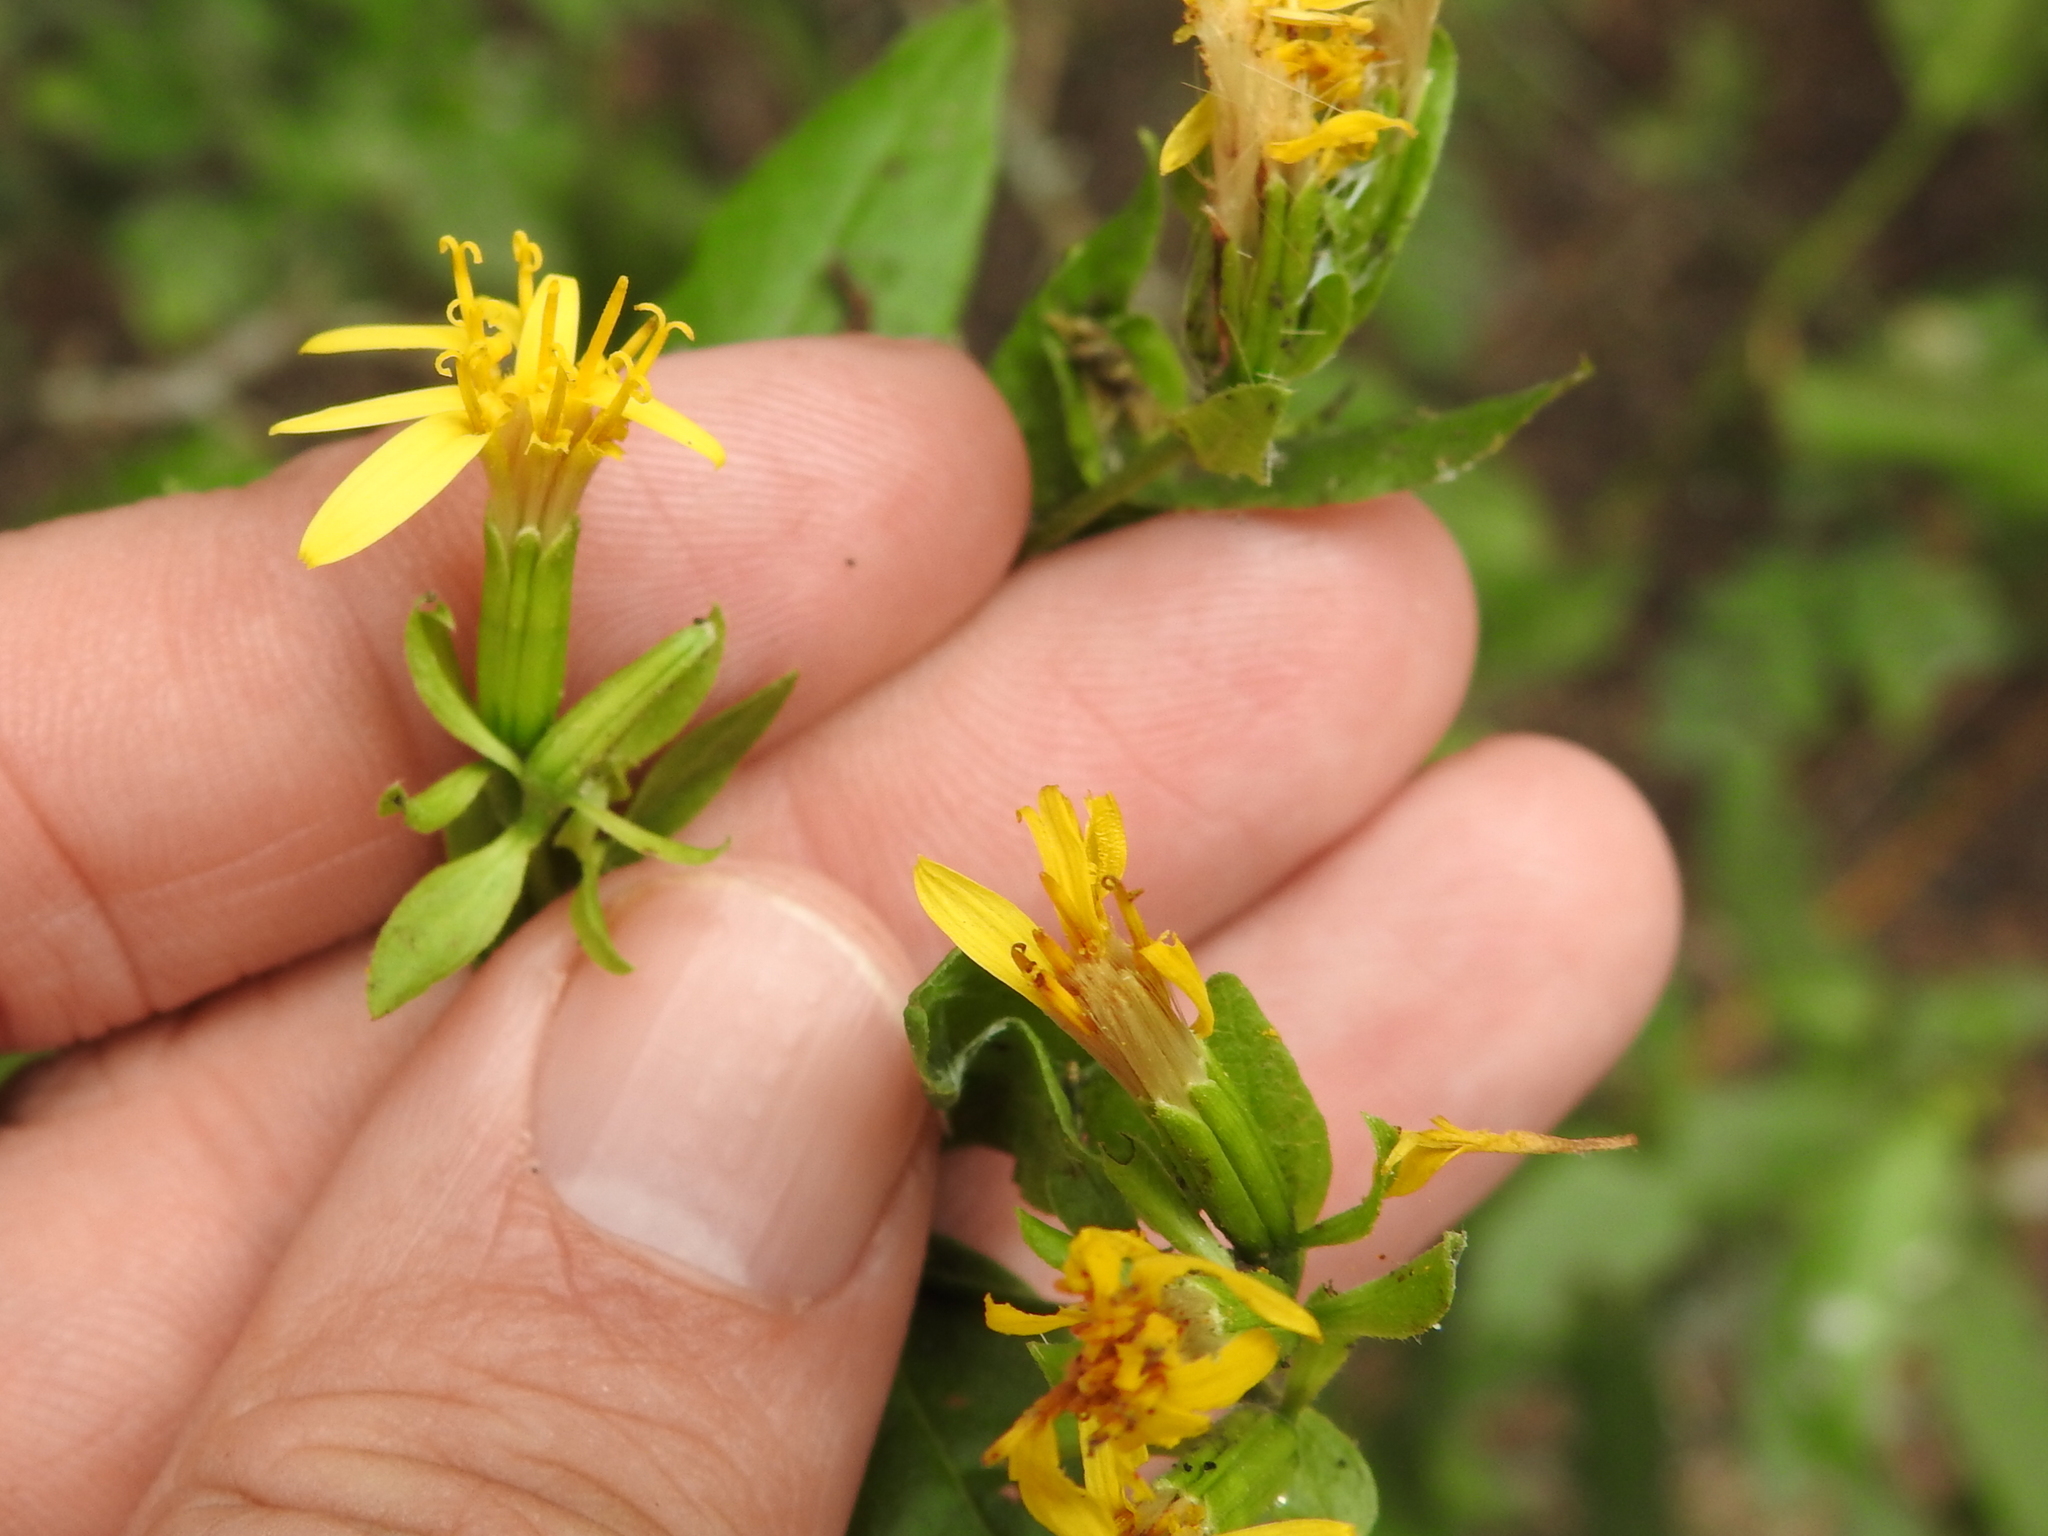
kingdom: Plantae
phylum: Tracheophyta
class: Magnoliopsida
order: Asterales
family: Asteraceae
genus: Trixis
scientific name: Trixis inula
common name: Tropical threefold
